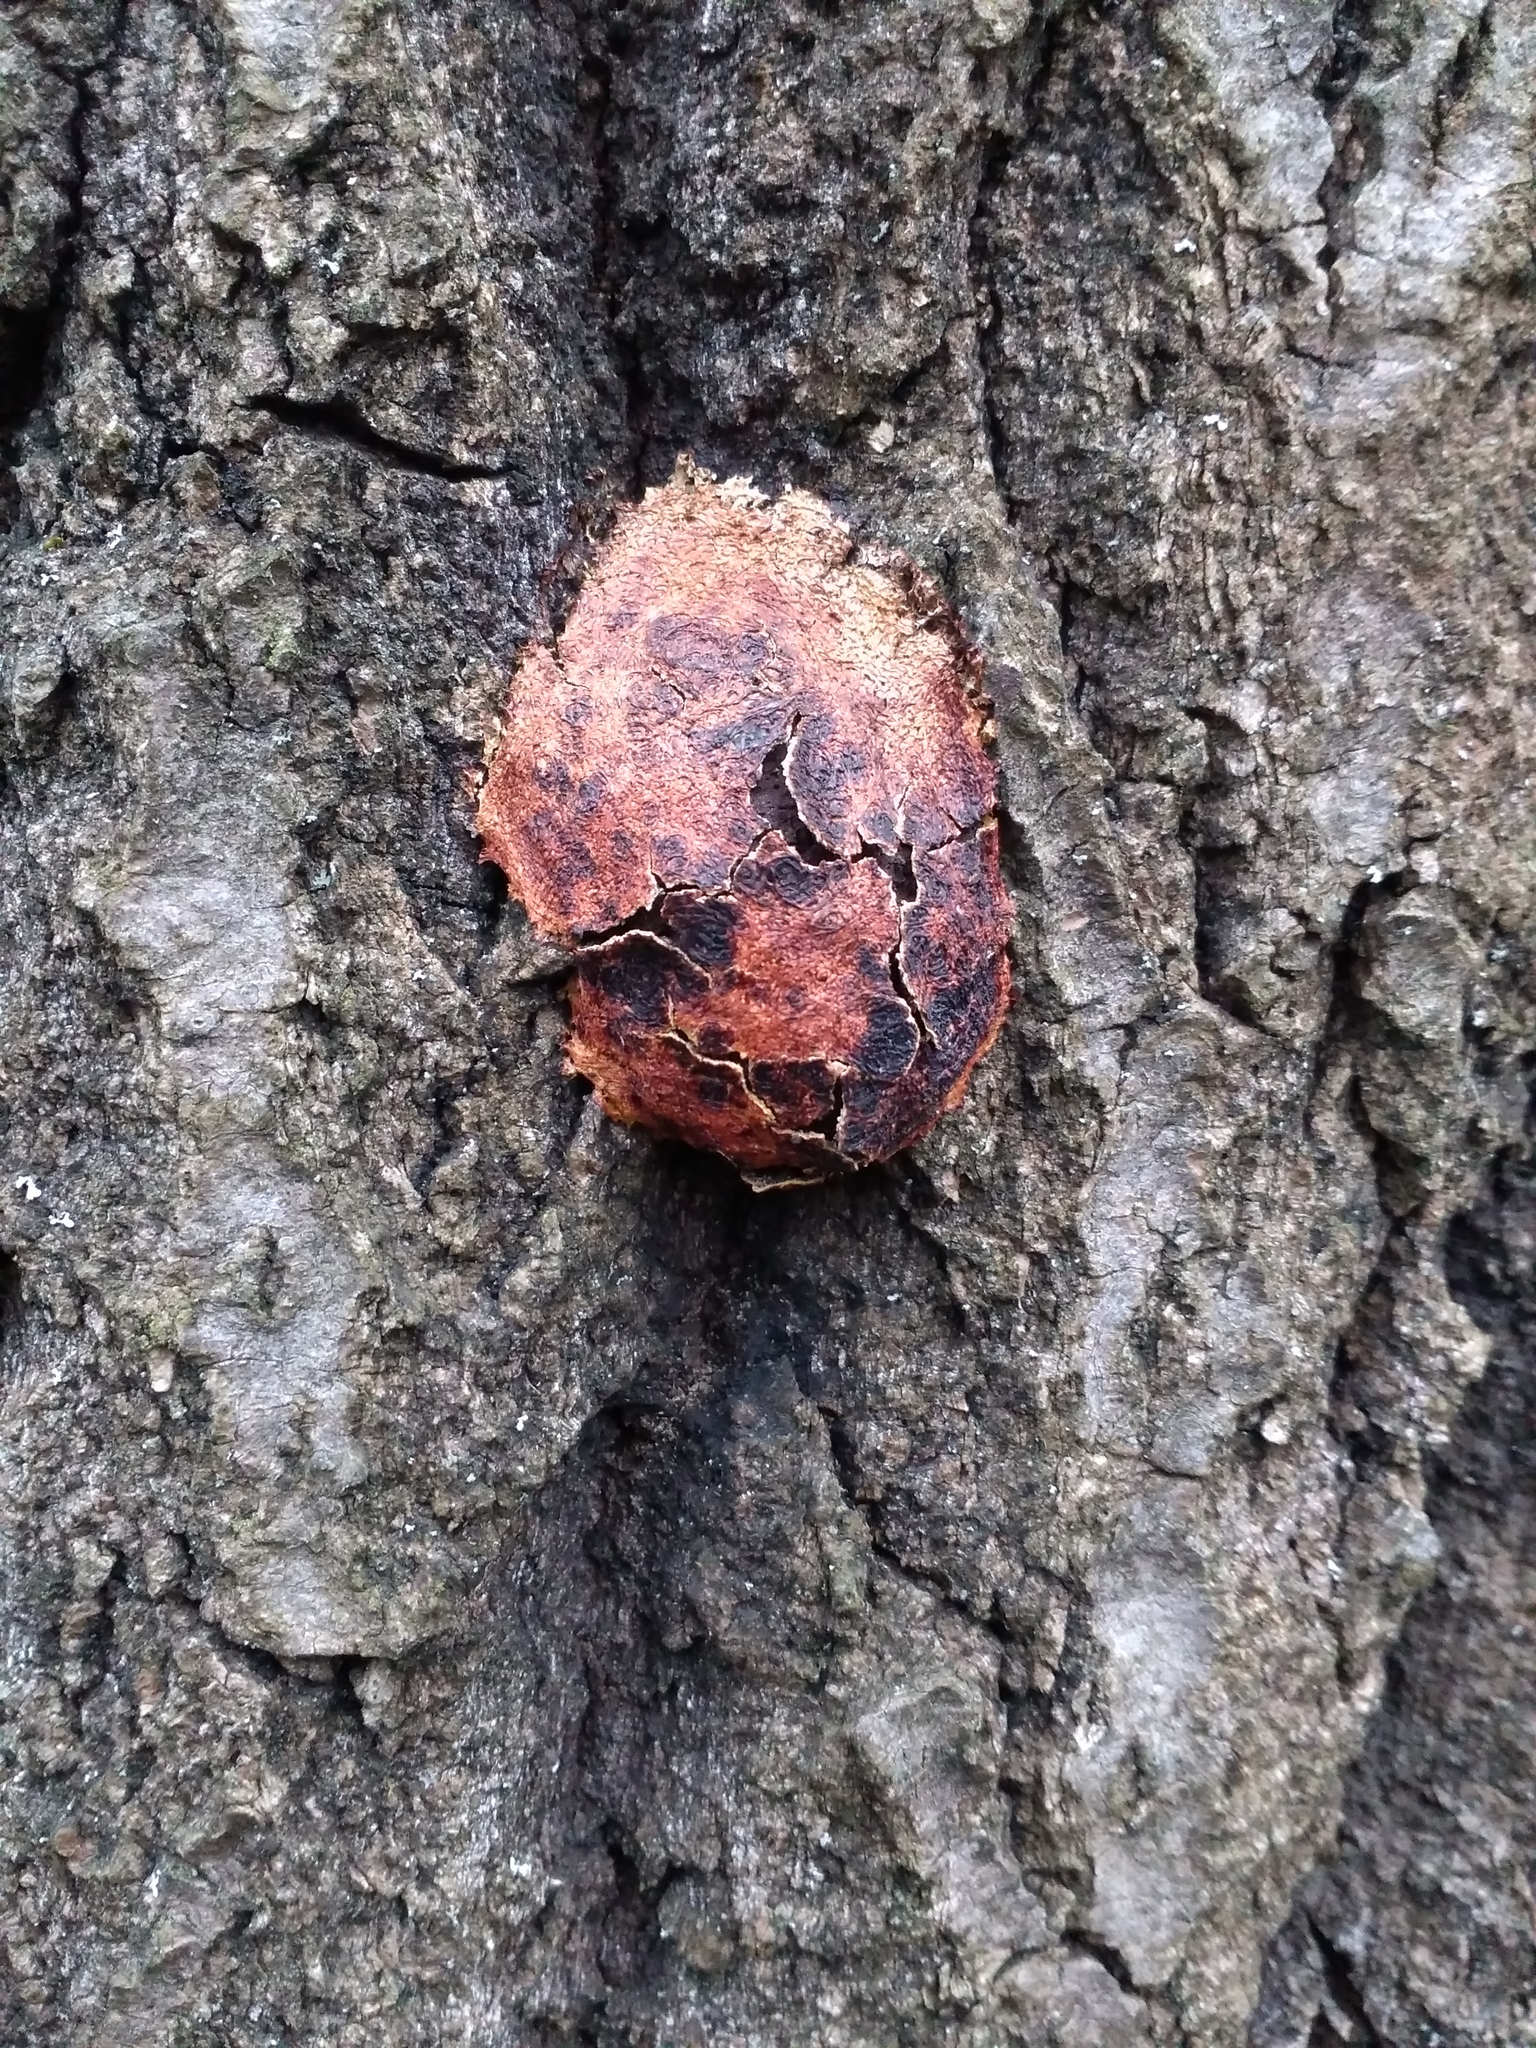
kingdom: Protozoa
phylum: Mycetozoa
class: Myxomycetes
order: Physarales
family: Physaraceae
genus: Fuligo
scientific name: Fuligo leviderma
